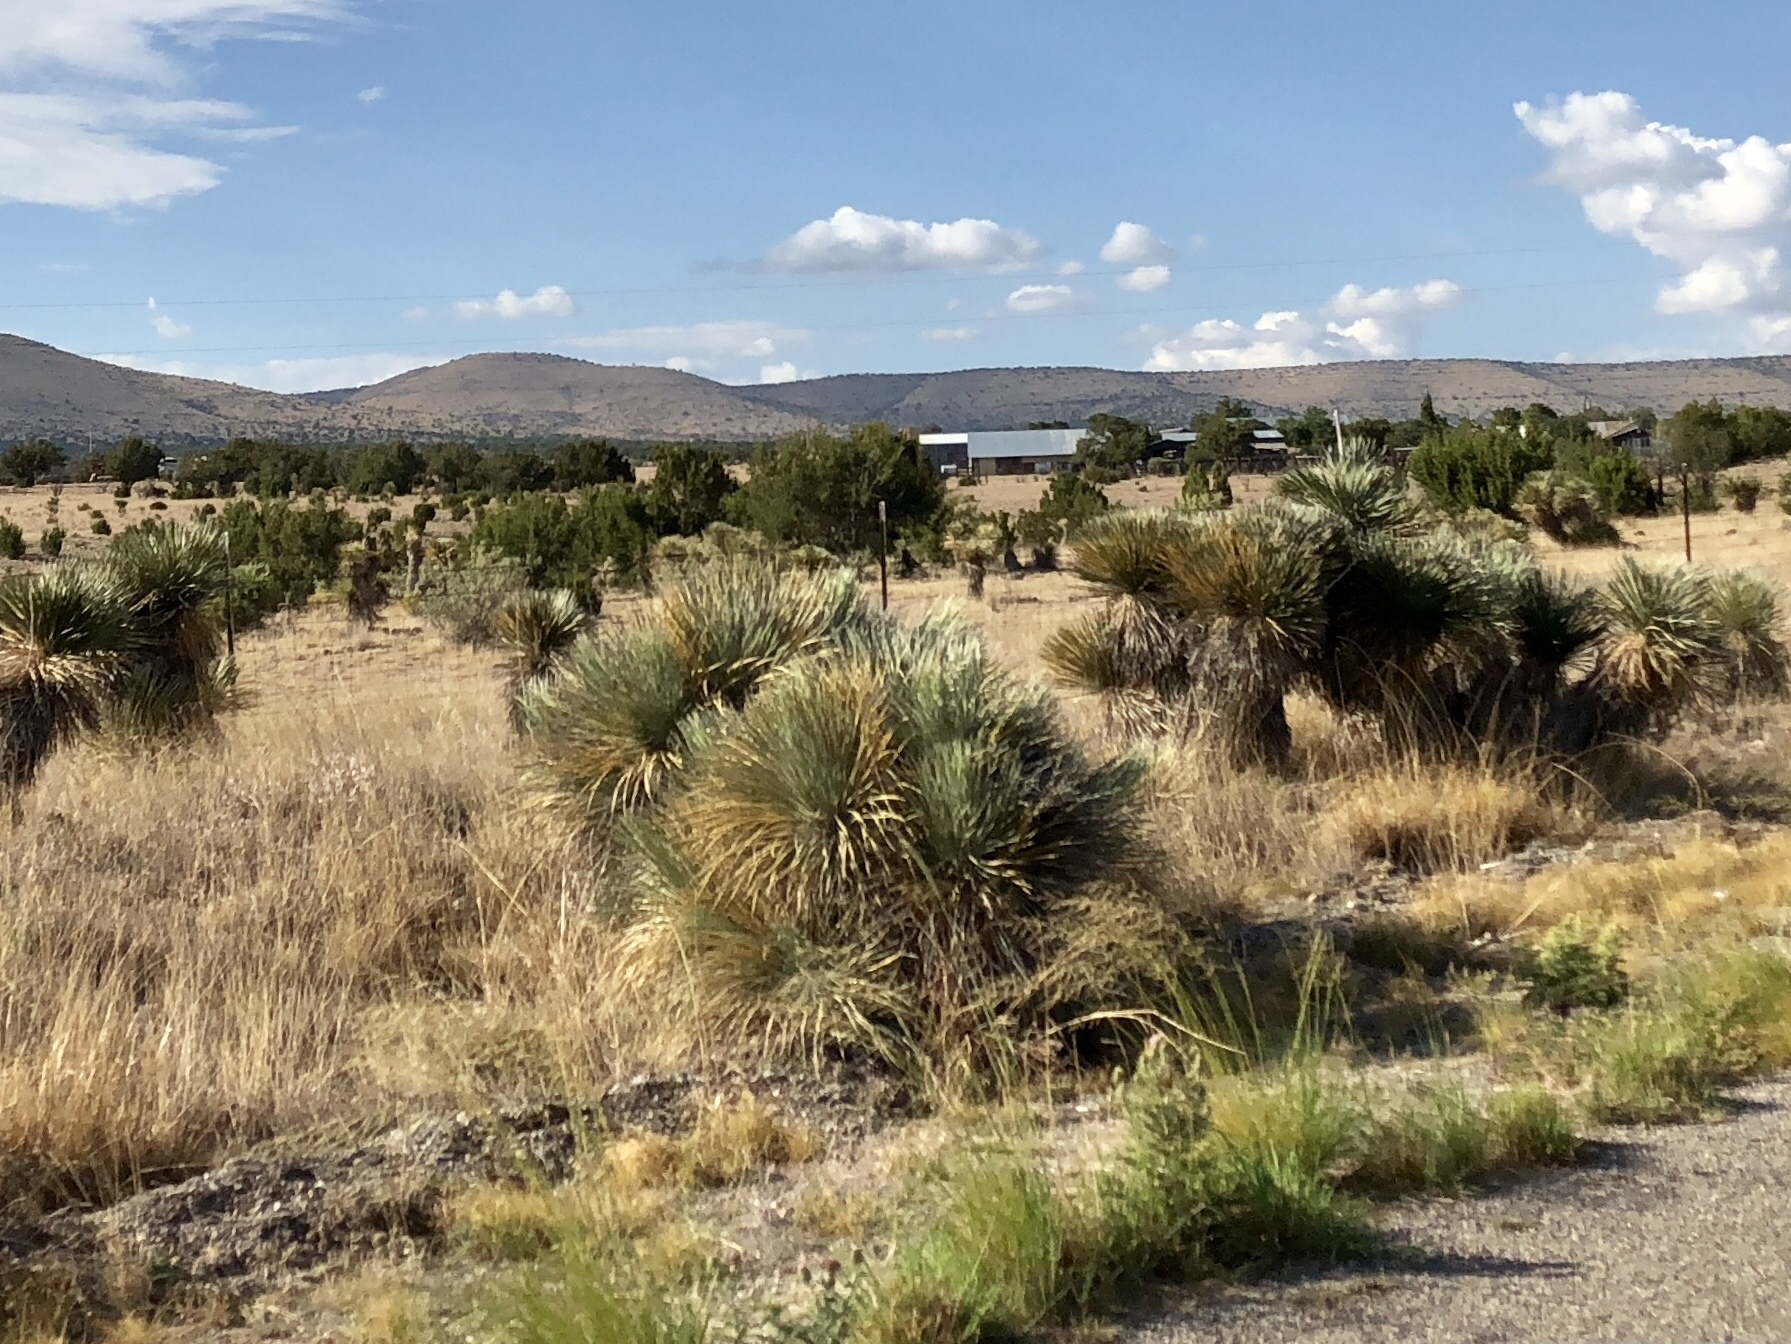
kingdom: Plantae
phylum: Tracheophyta
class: Liliopsida
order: Asparagales
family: Asparagaceae
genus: Yucca
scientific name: Yucca elata
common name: Palmella
